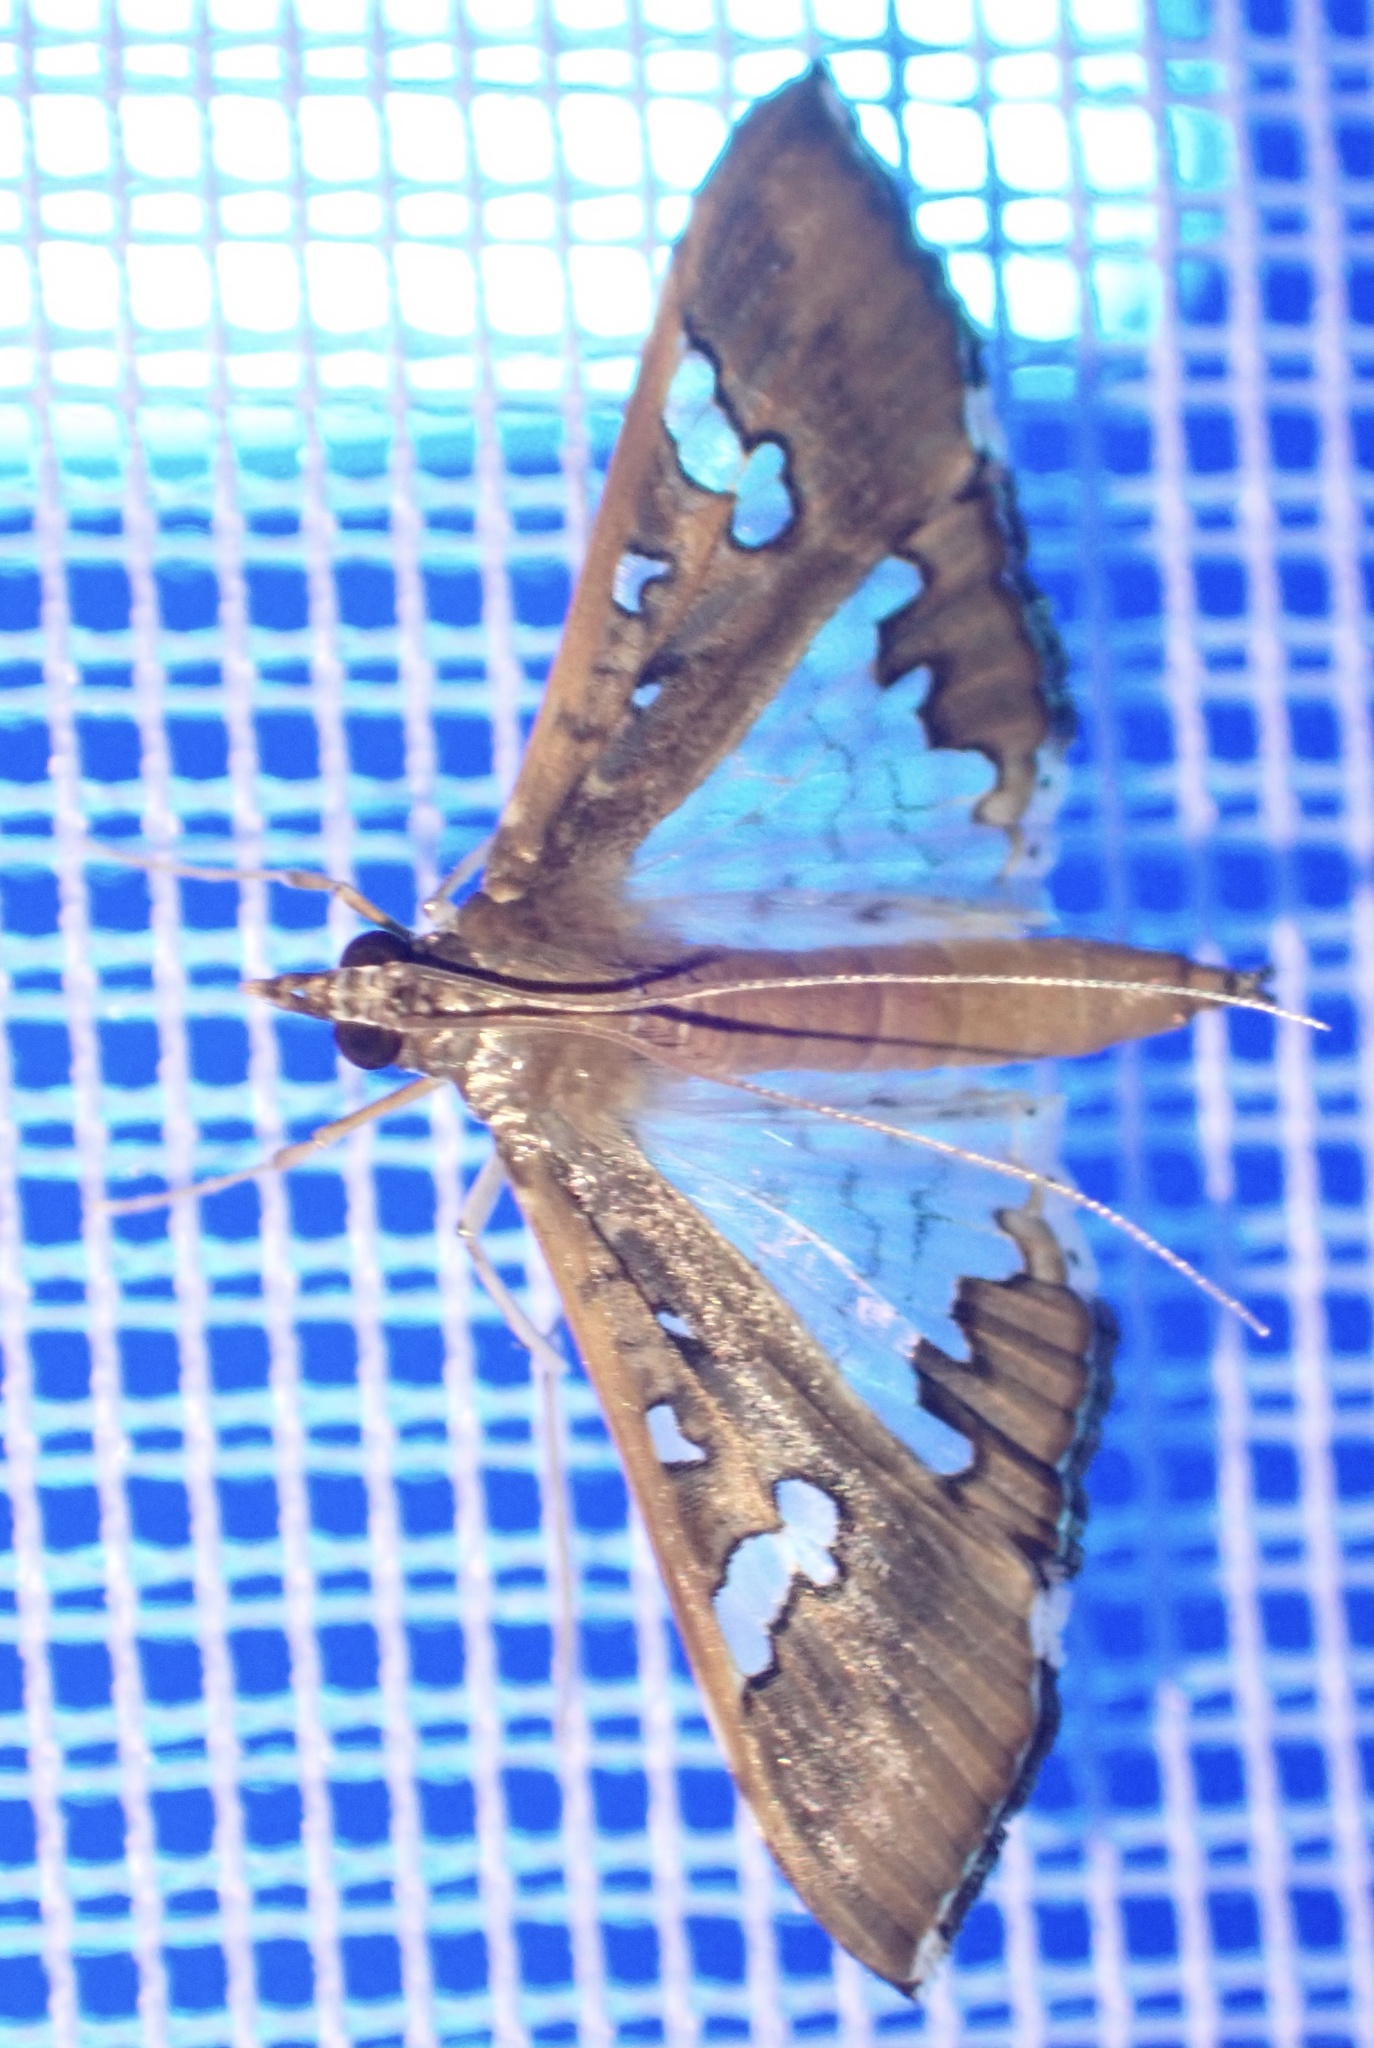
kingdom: Animalia
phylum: Arthropoda
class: Insecta
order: Lepidoptera
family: Crambidae
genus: Maruca
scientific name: Maruca vitrata
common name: Maruca pod borer
